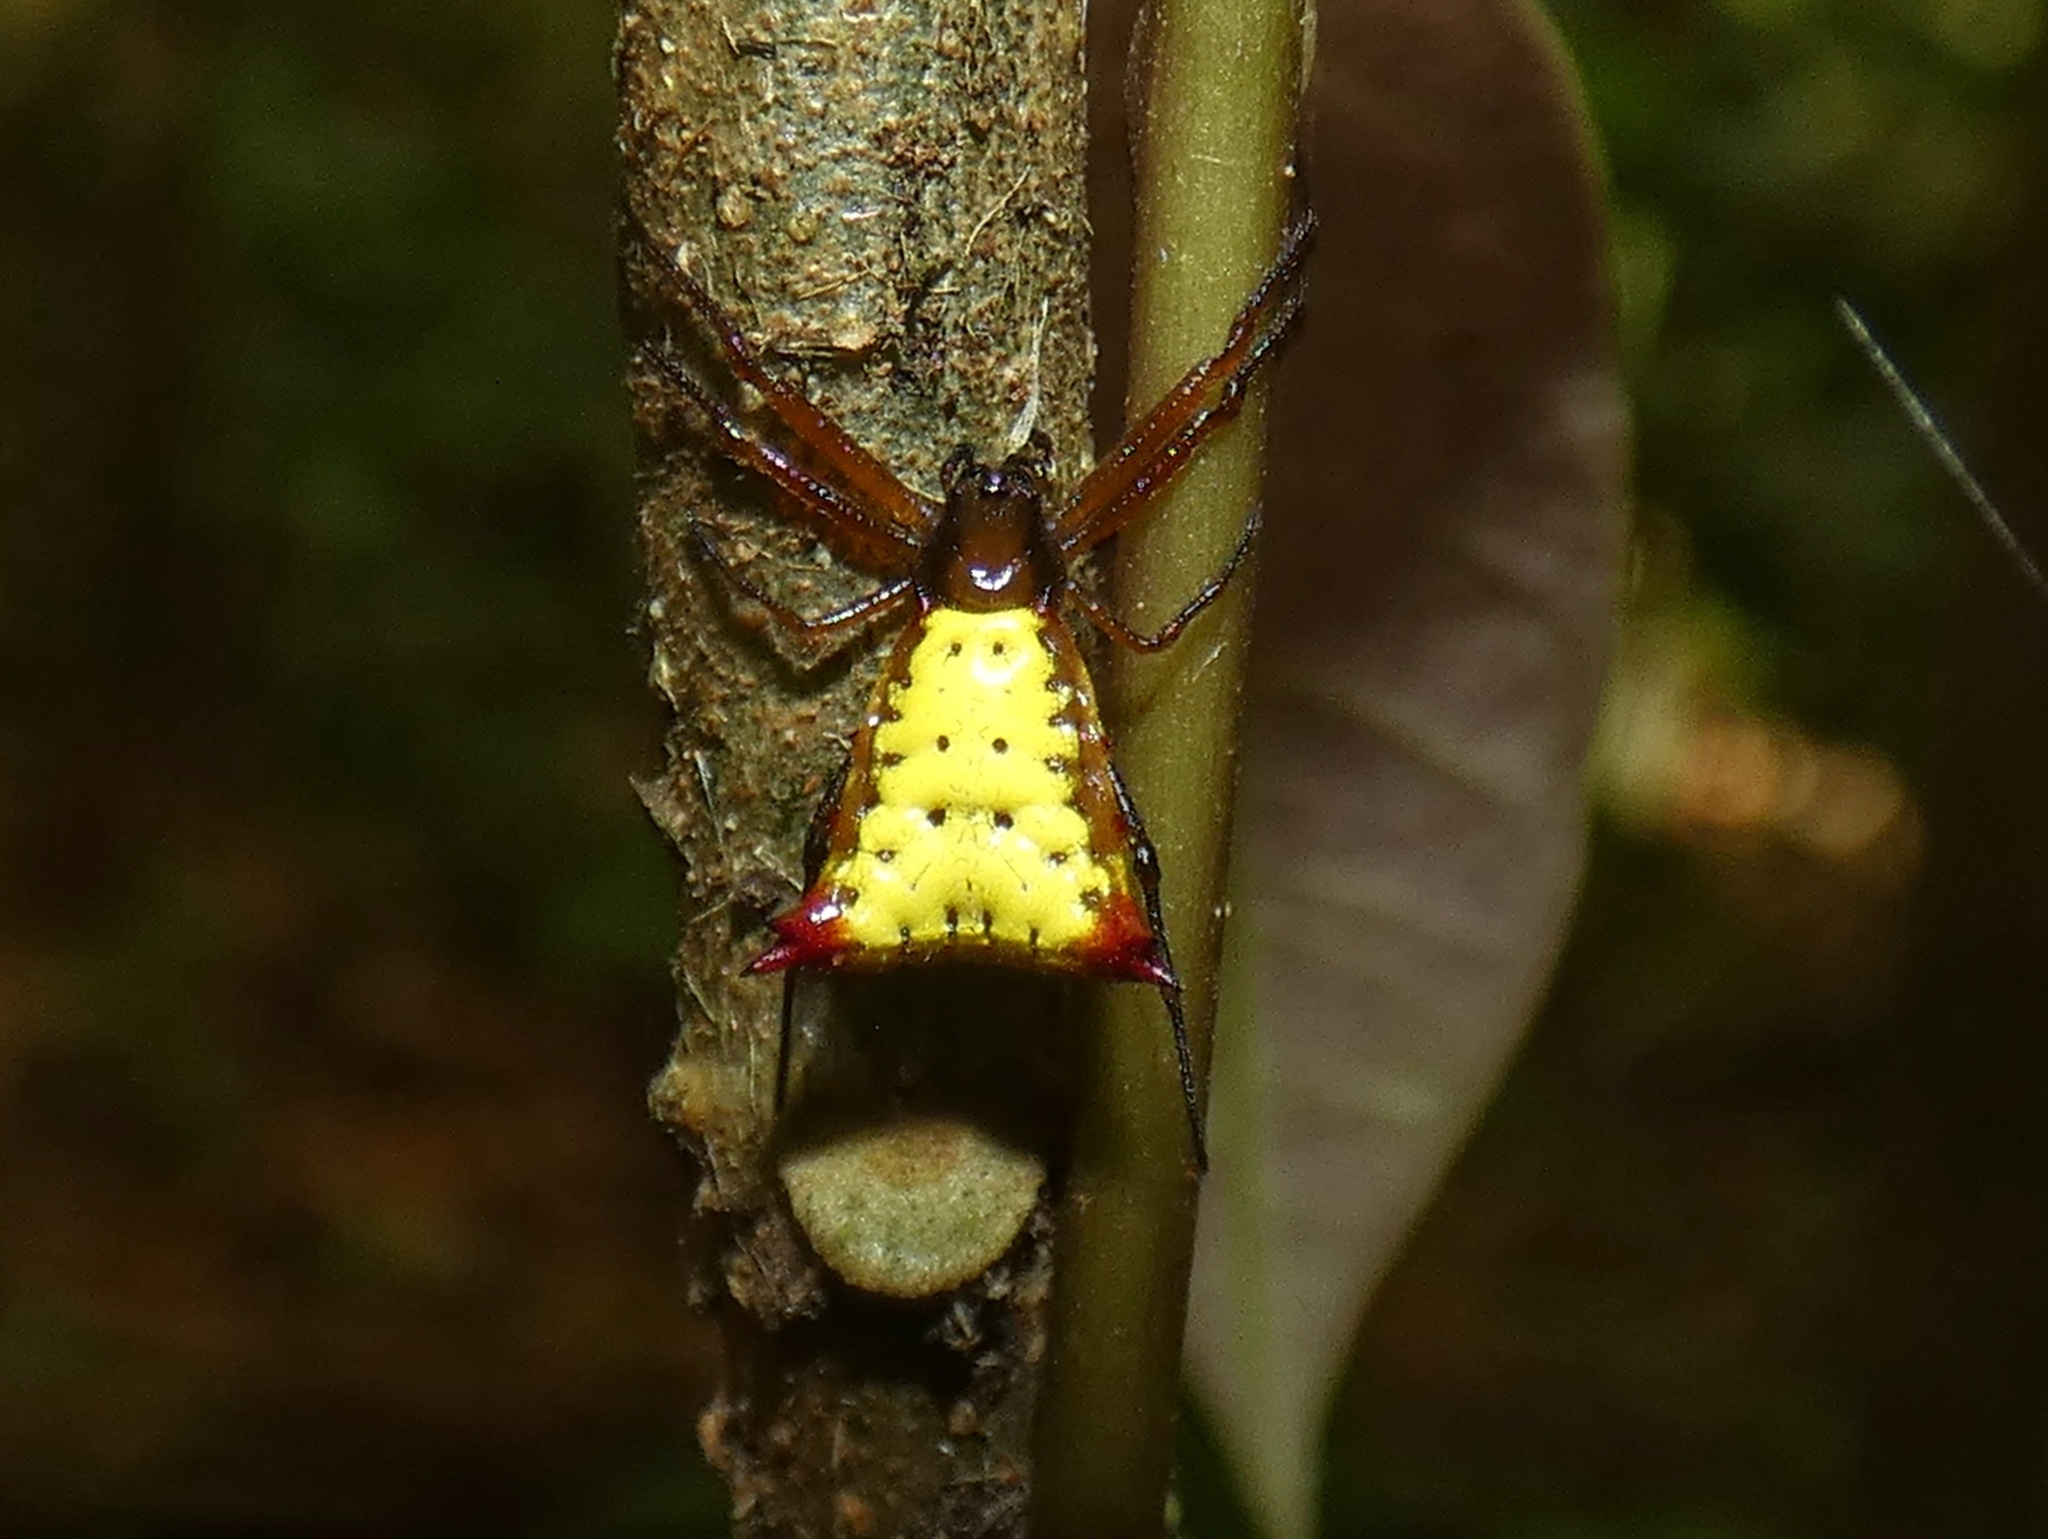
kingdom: Animalia
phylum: Arthropoda
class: Arachnida
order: Araneae
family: Araneidae
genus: Micrathena
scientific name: Micrathena duodecimspinosa
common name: Orb weavers
